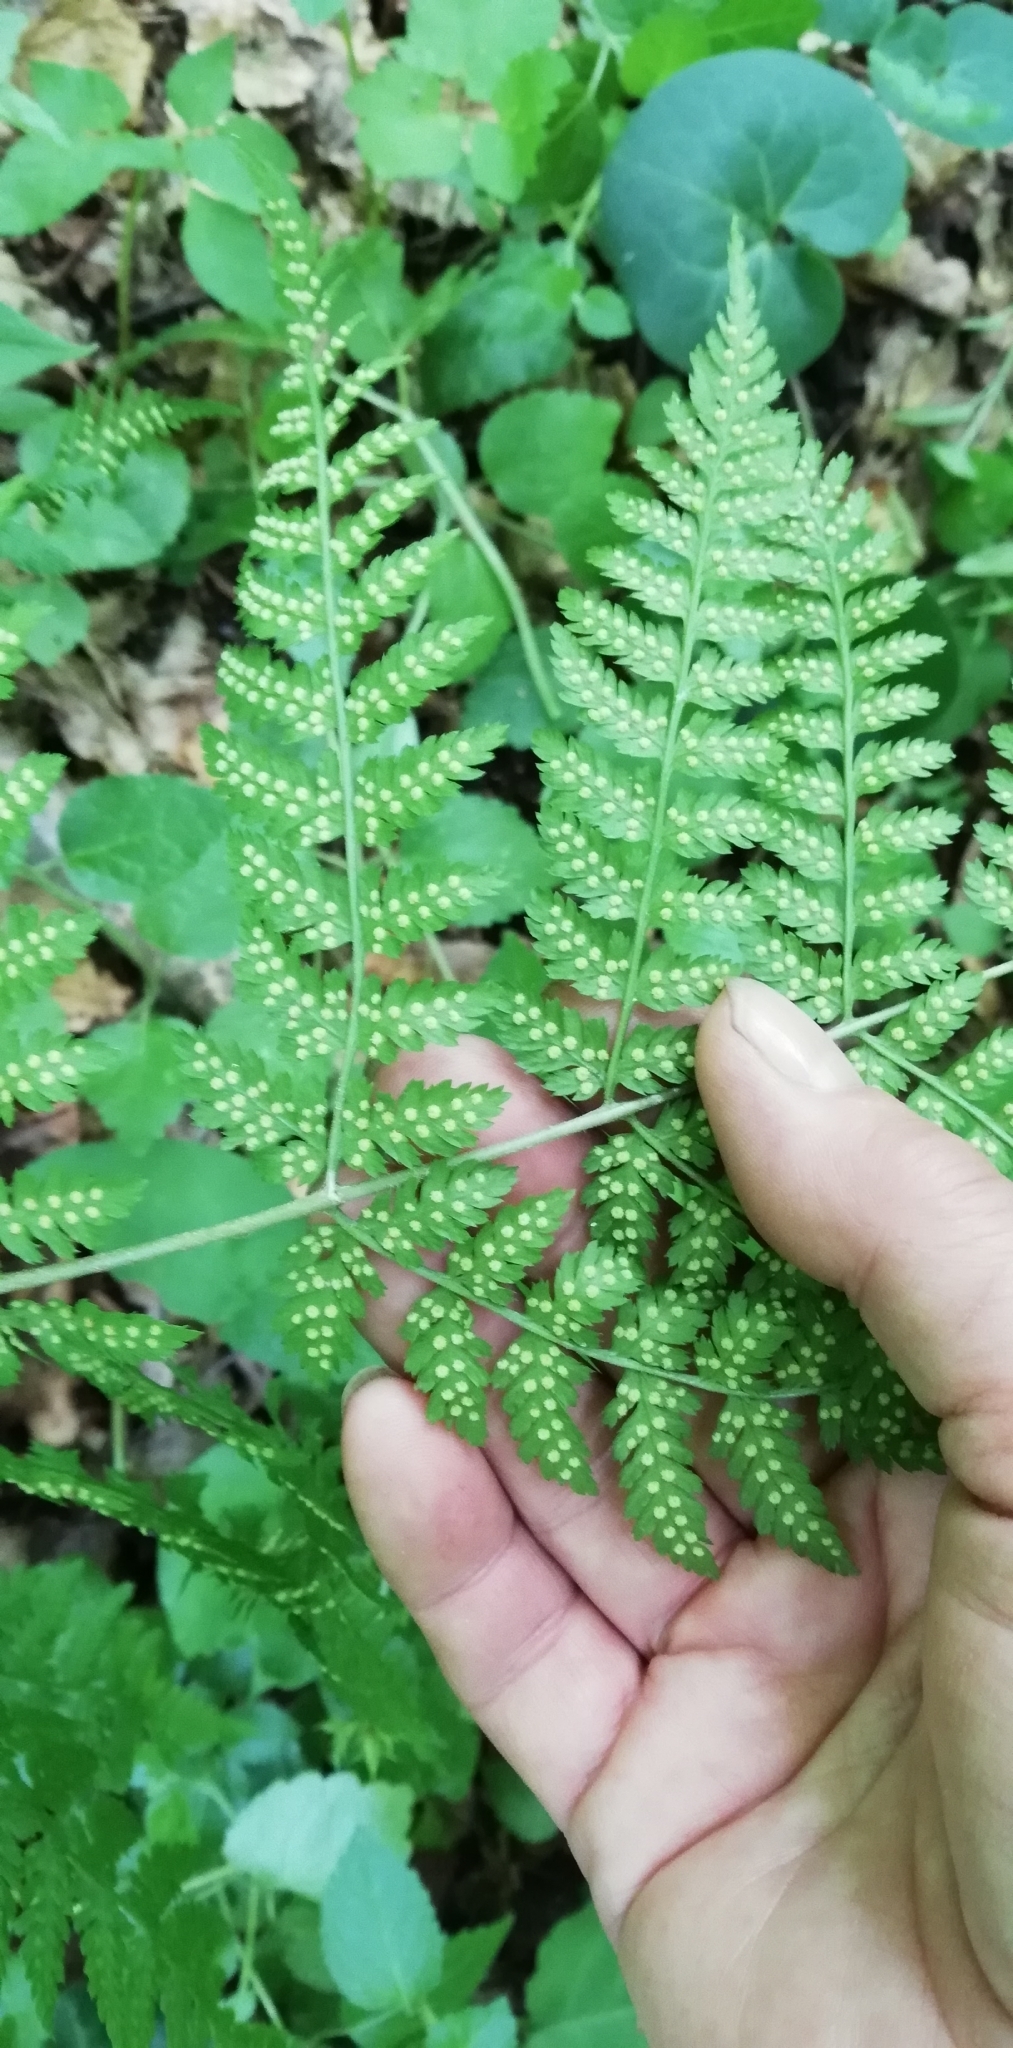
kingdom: Plantae
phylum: Tracheophyta
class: Polypodiopsida
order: Polypodiales
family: Dryopteridaceae
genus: Dryopteris
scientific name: Dryopteris expansa
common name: Northern buckler fern
